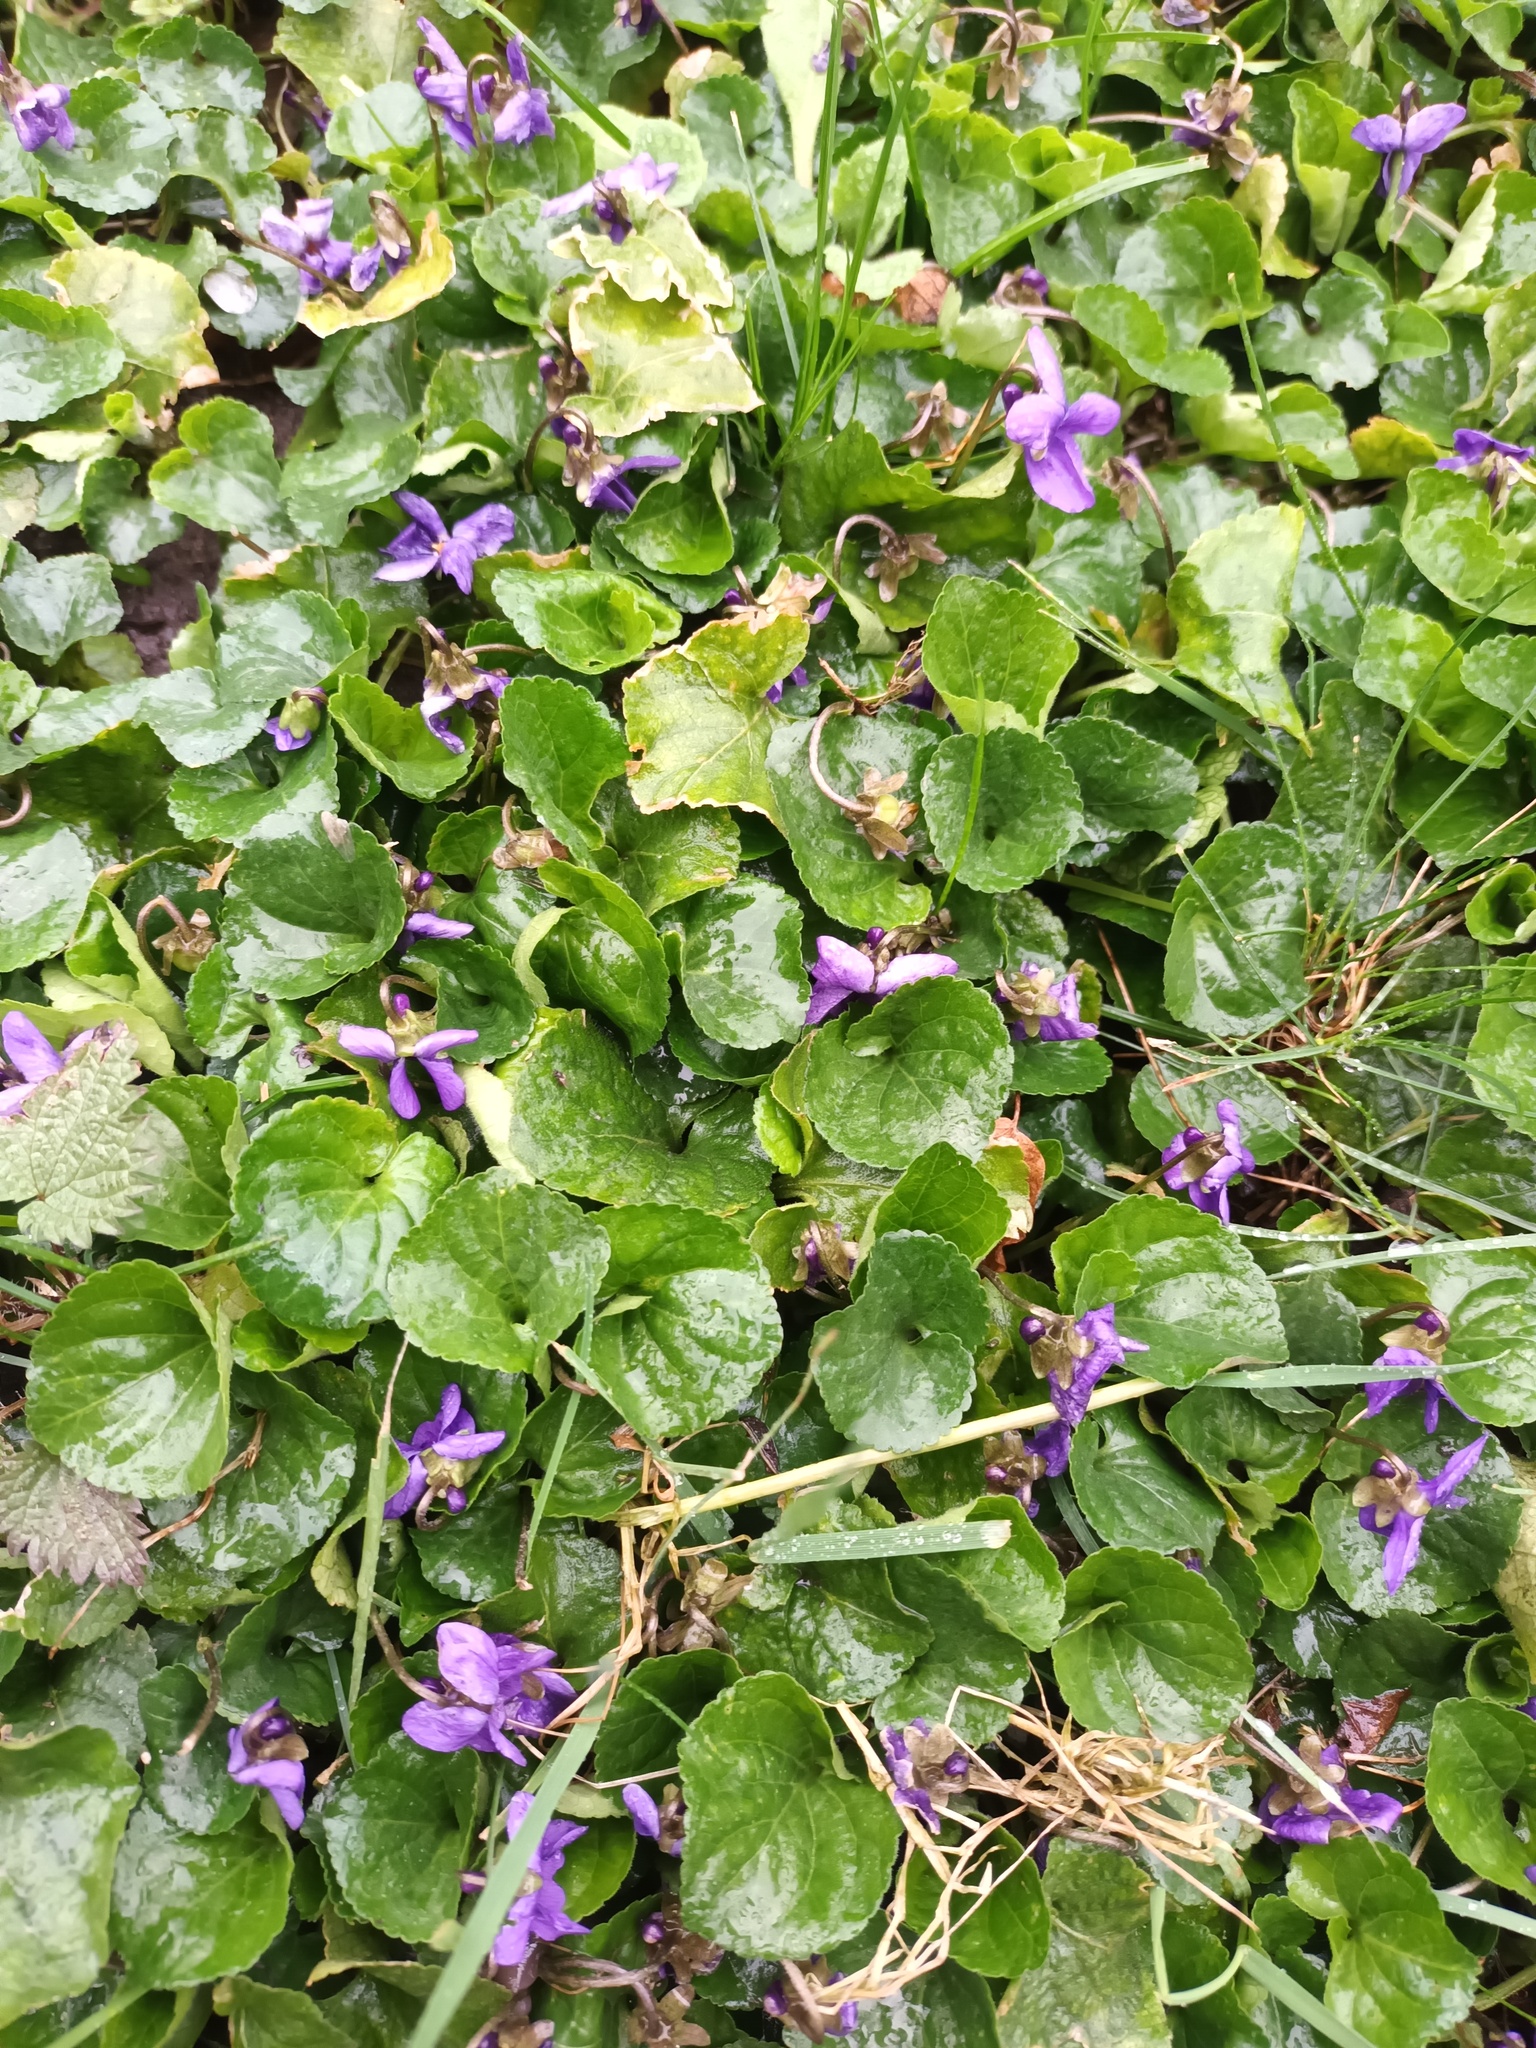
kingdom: Plantae
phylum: Tracheophyta
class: Magnoliopsida
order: Malpighiales
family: Violaceae
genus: Viola
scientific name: Viola odorata
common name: Sweet violet
